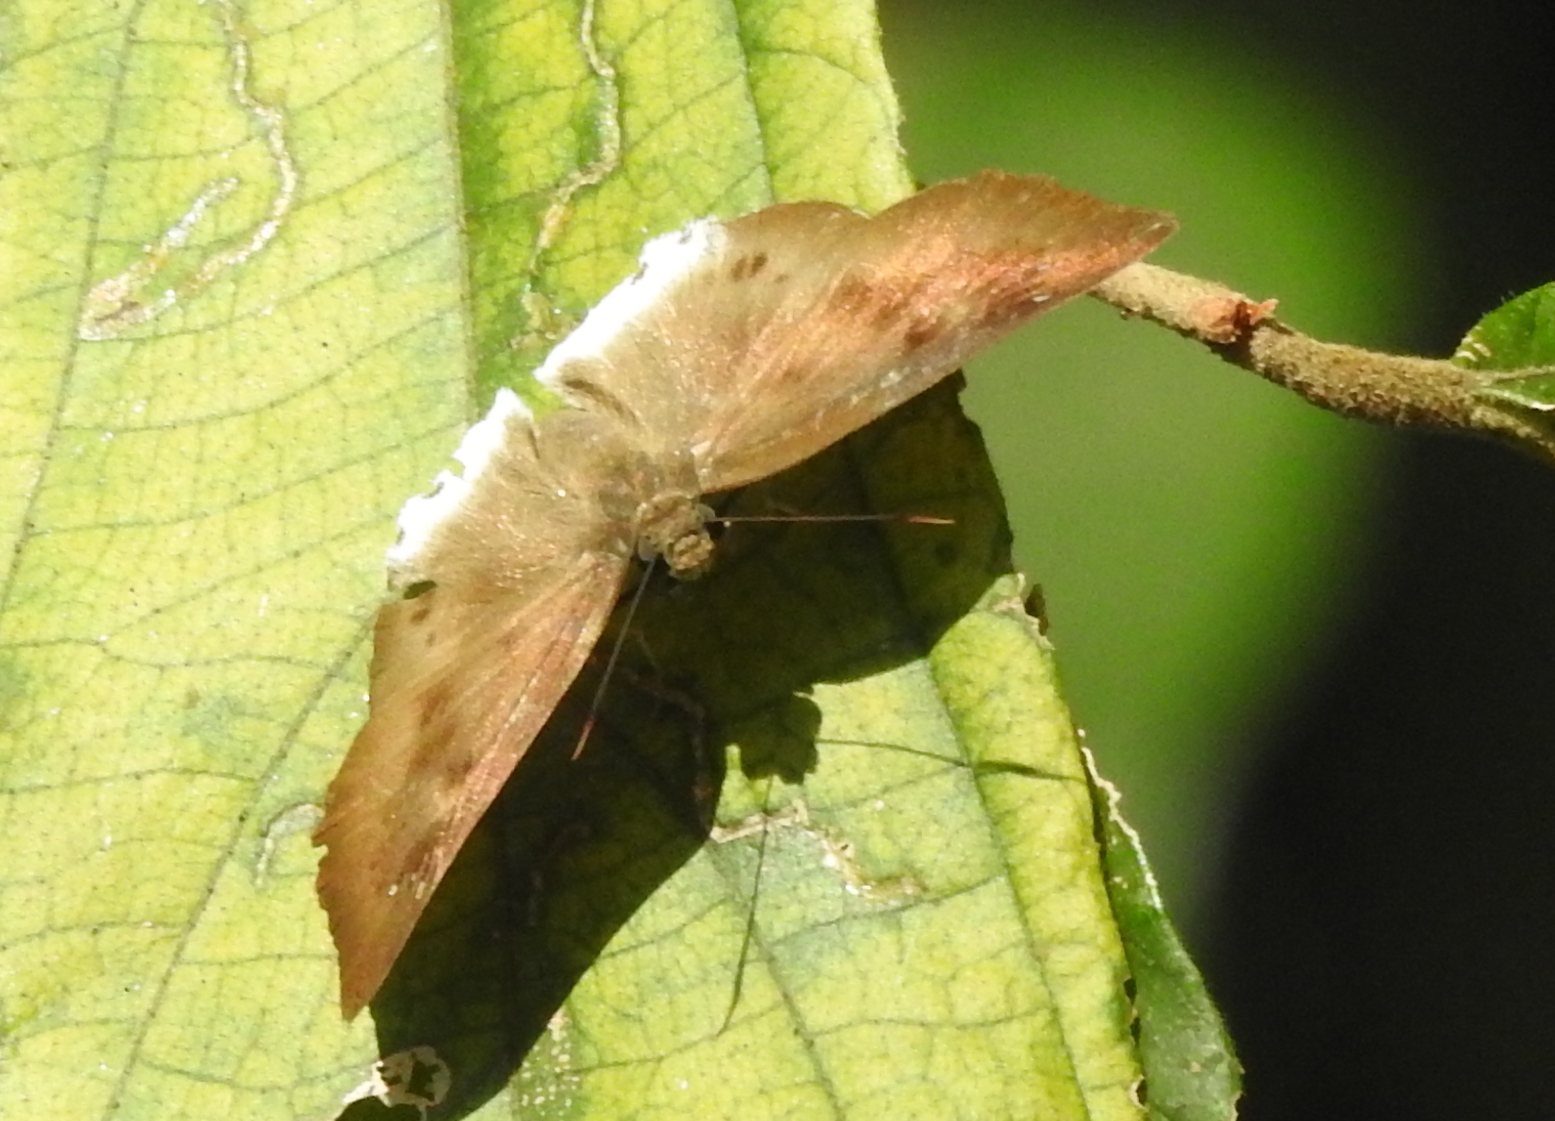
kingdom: Animalia
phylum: Arthropoda
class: Insecta
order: Lepidoptera
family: Hesperiidae
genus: Tagiades
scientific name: Tagiades gana
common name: Suffused snow flat
